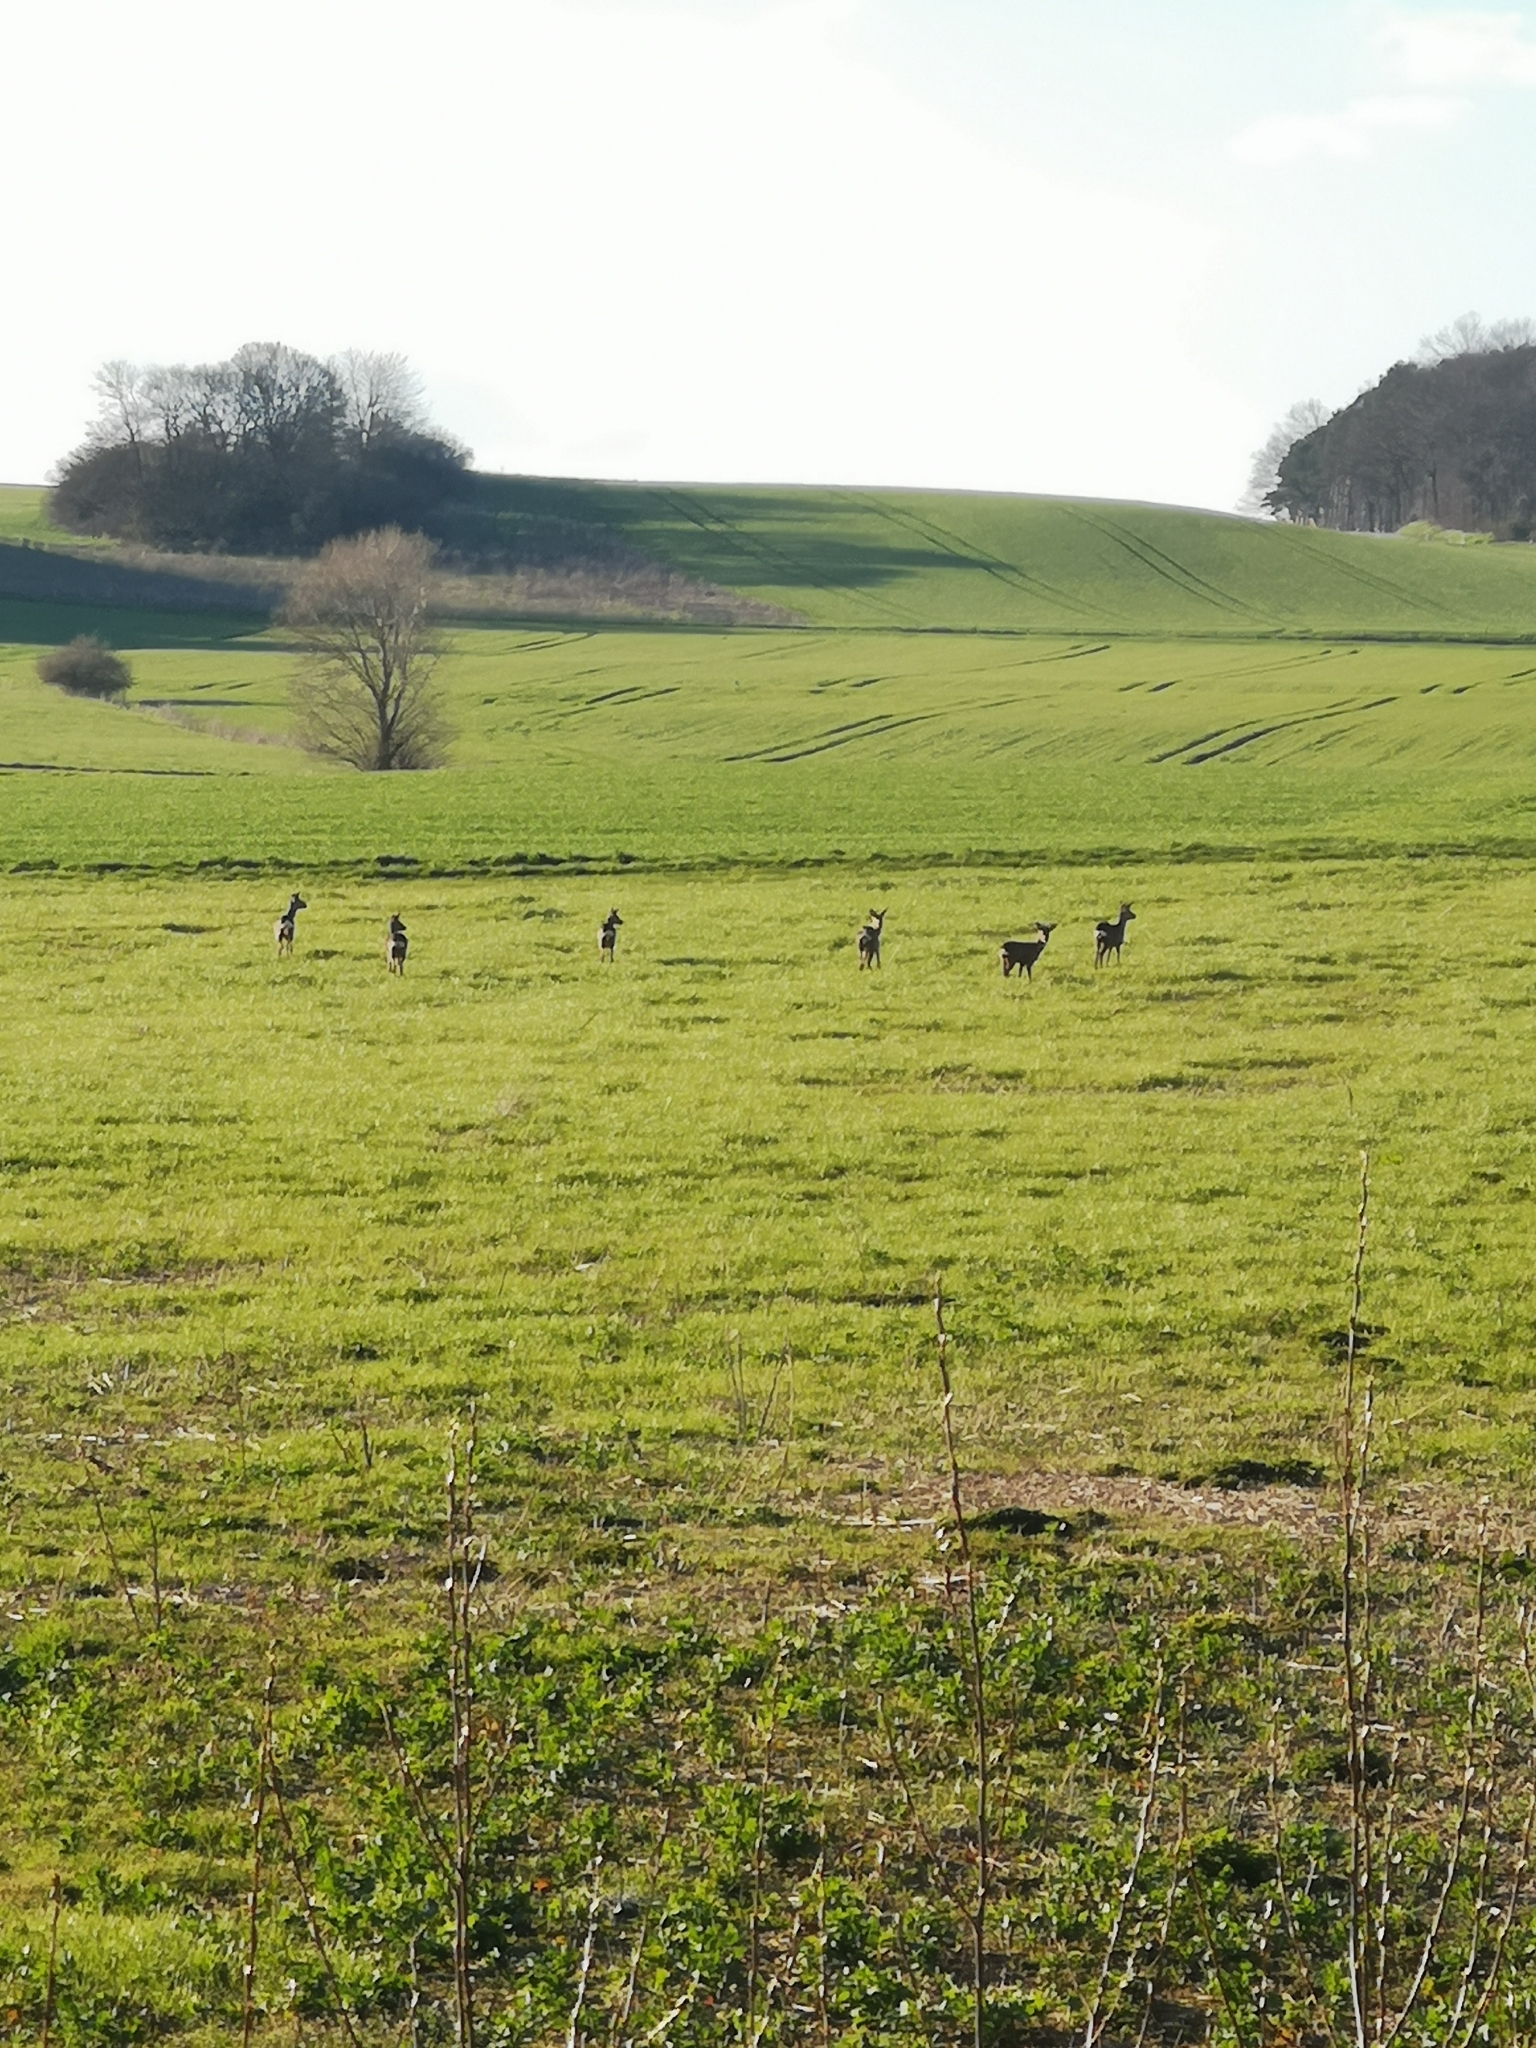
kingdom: Animalia
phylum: Chordata
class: Mammalia
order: Artiodactyla
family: Cervidae
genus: Capreolus
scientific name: Capreolus capreolus
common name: Western roe deer
